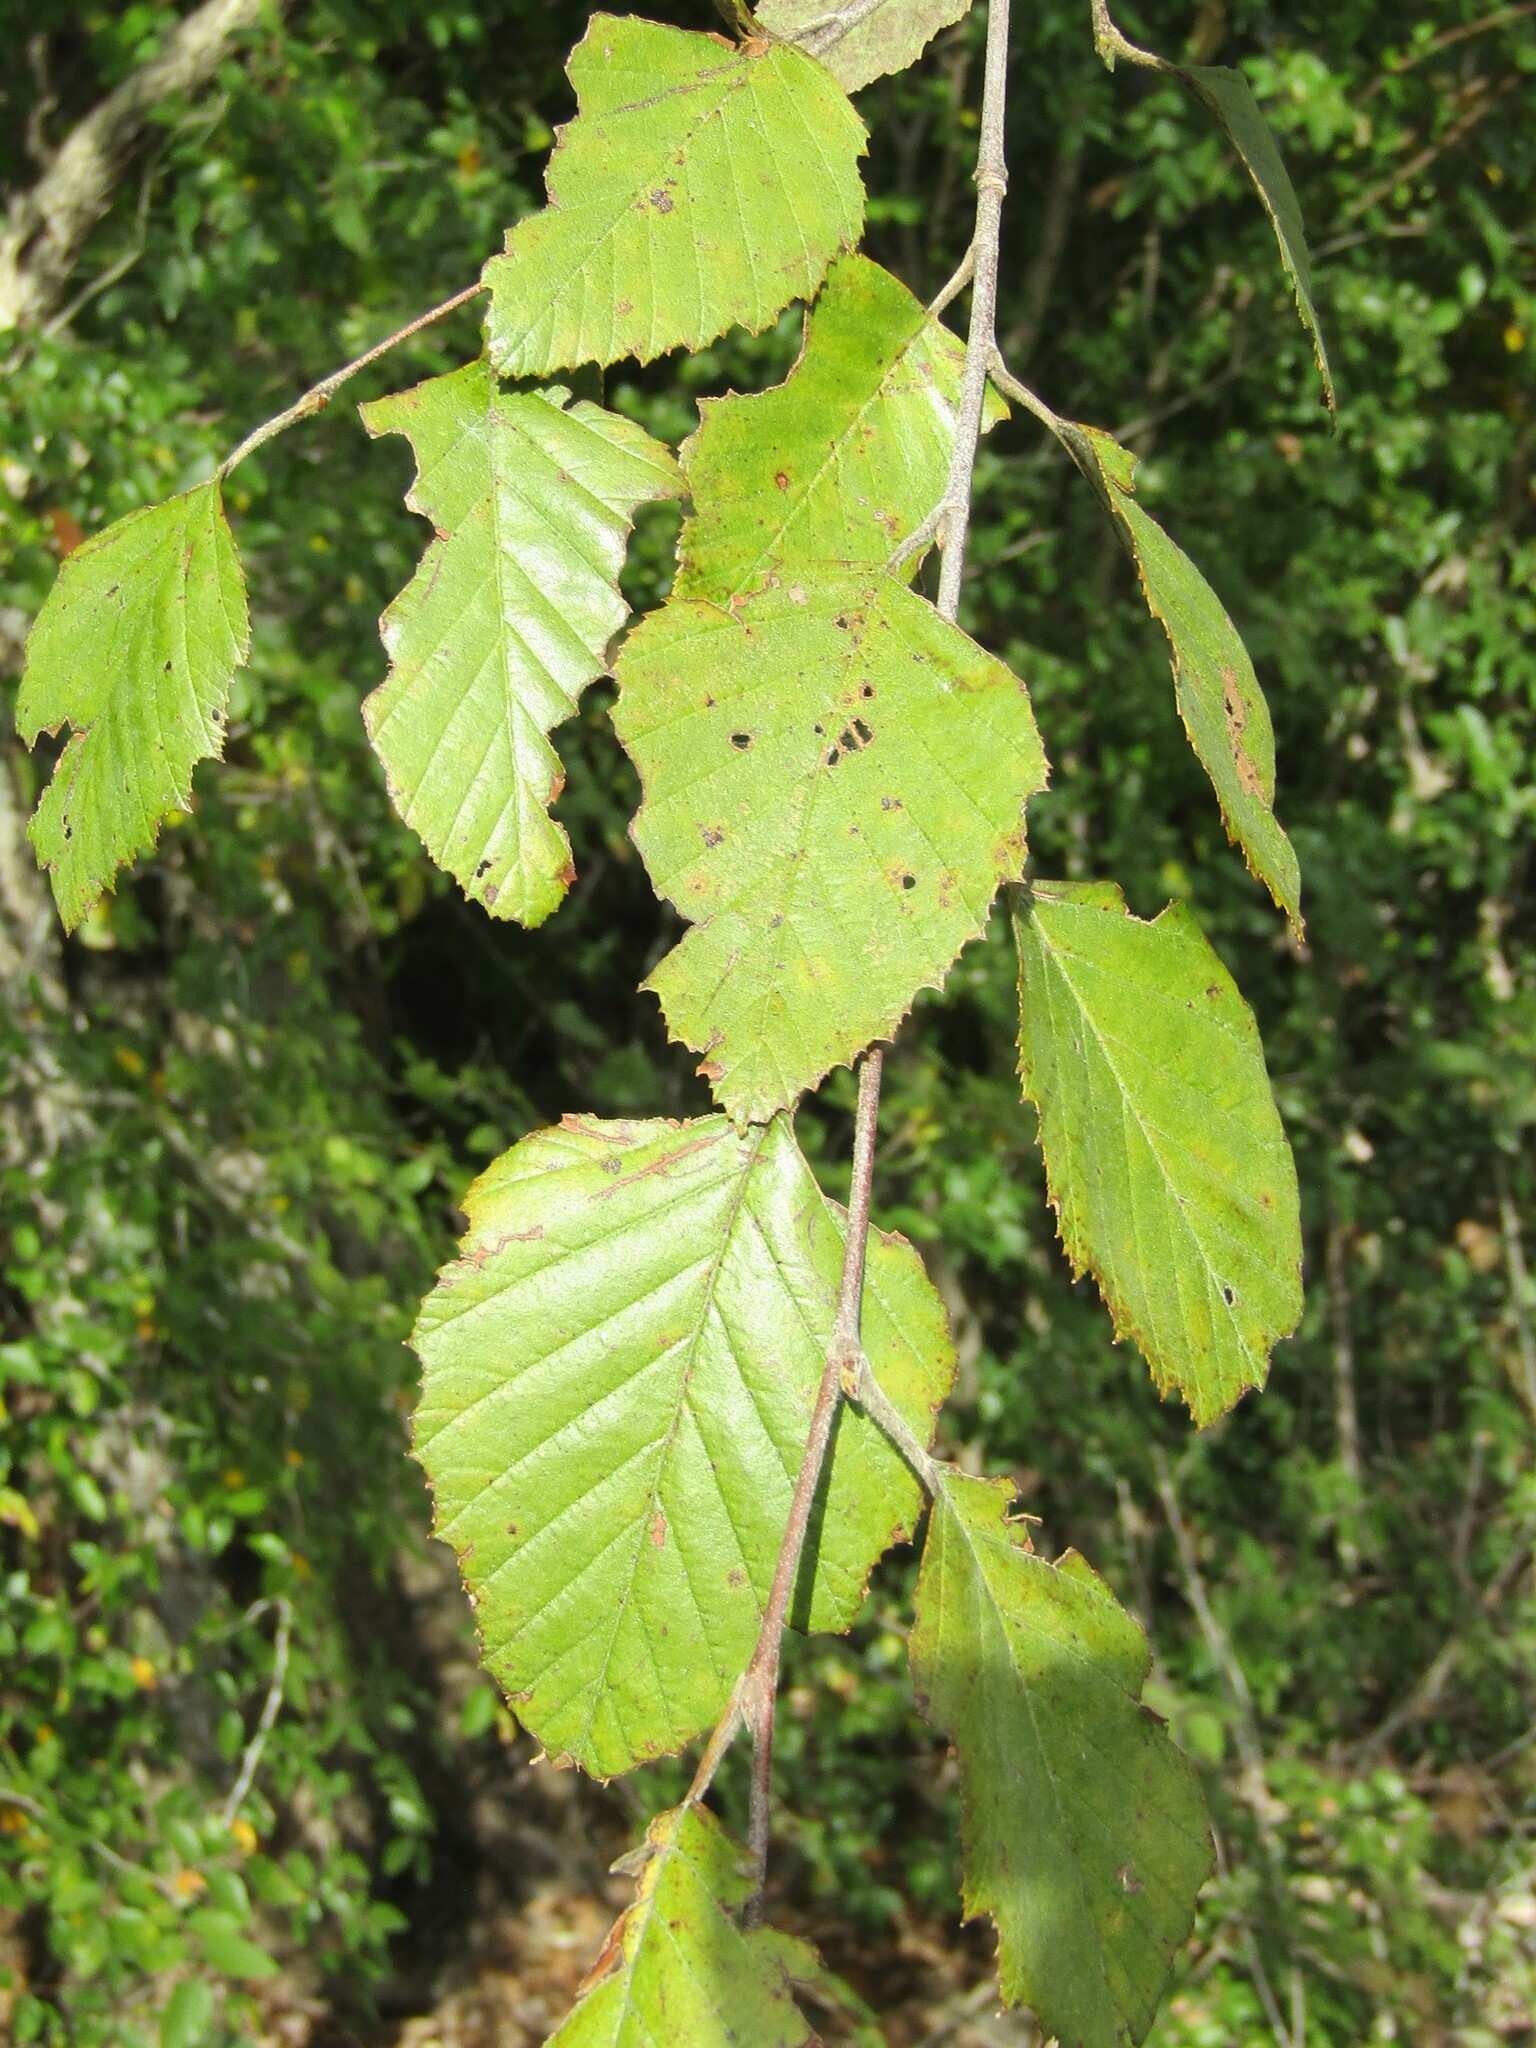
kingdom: Plantae
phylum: Tracheophyta
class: Magnoliopsida
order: Fagales
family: Betulaceae
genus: Betula
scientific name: Betula nigra
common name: Black birch
